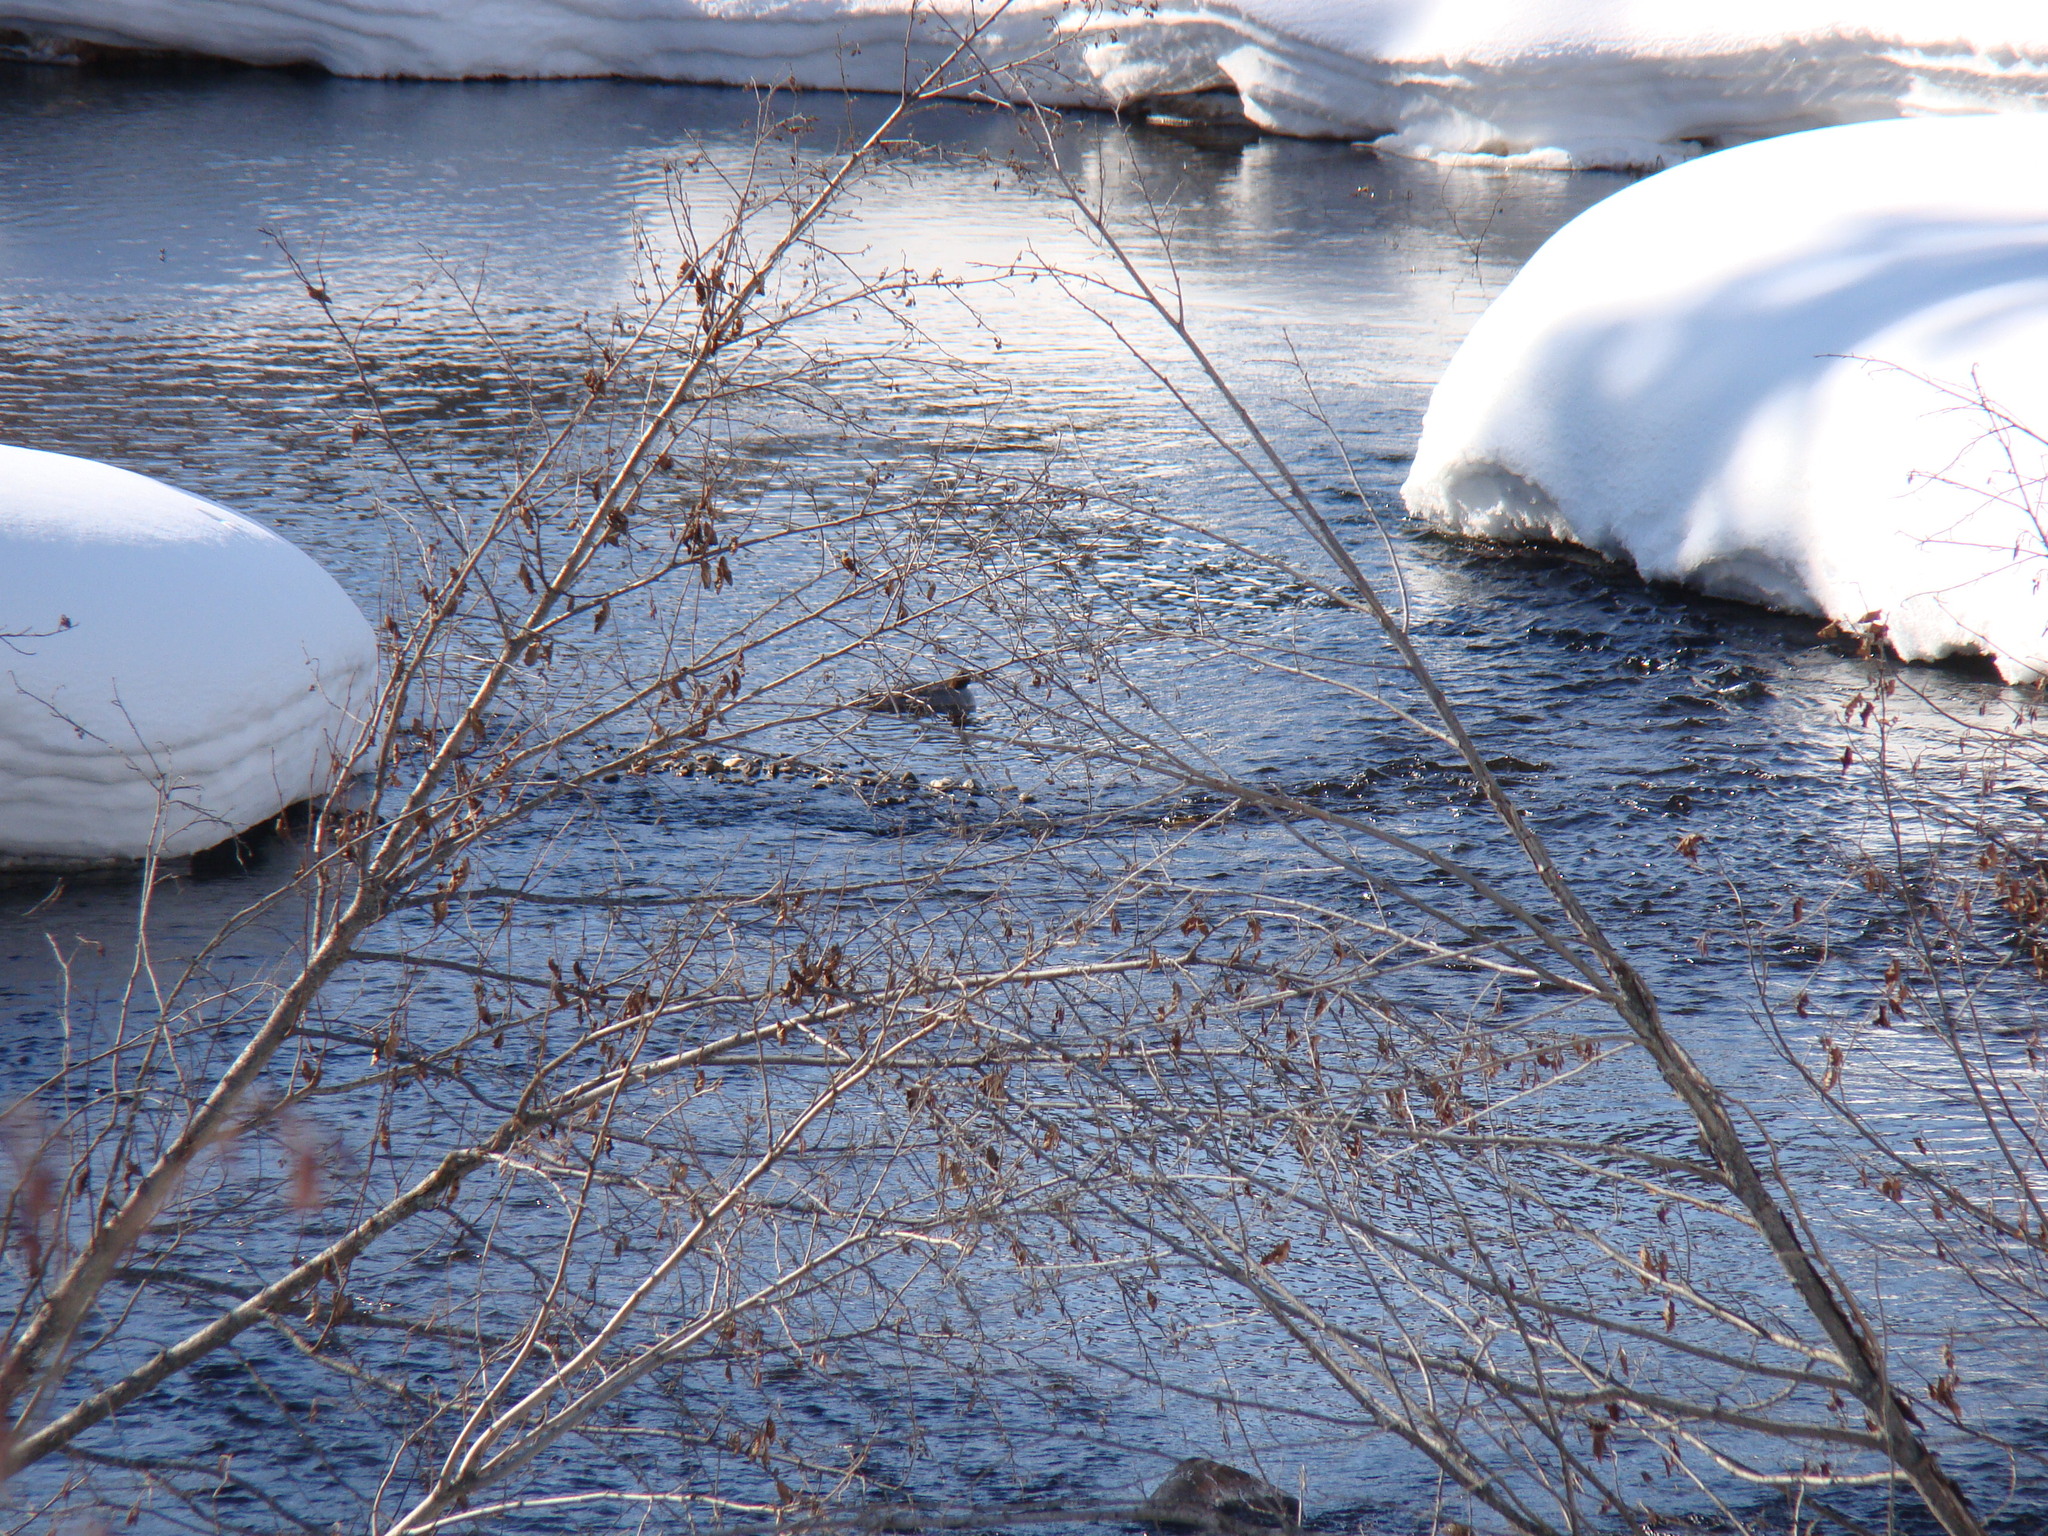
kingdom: Animalia
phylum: Chordata
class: Aves
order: Anseriformes
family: Anatidae
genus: Mergus
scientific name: Mergus merganser
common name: Common merganser
